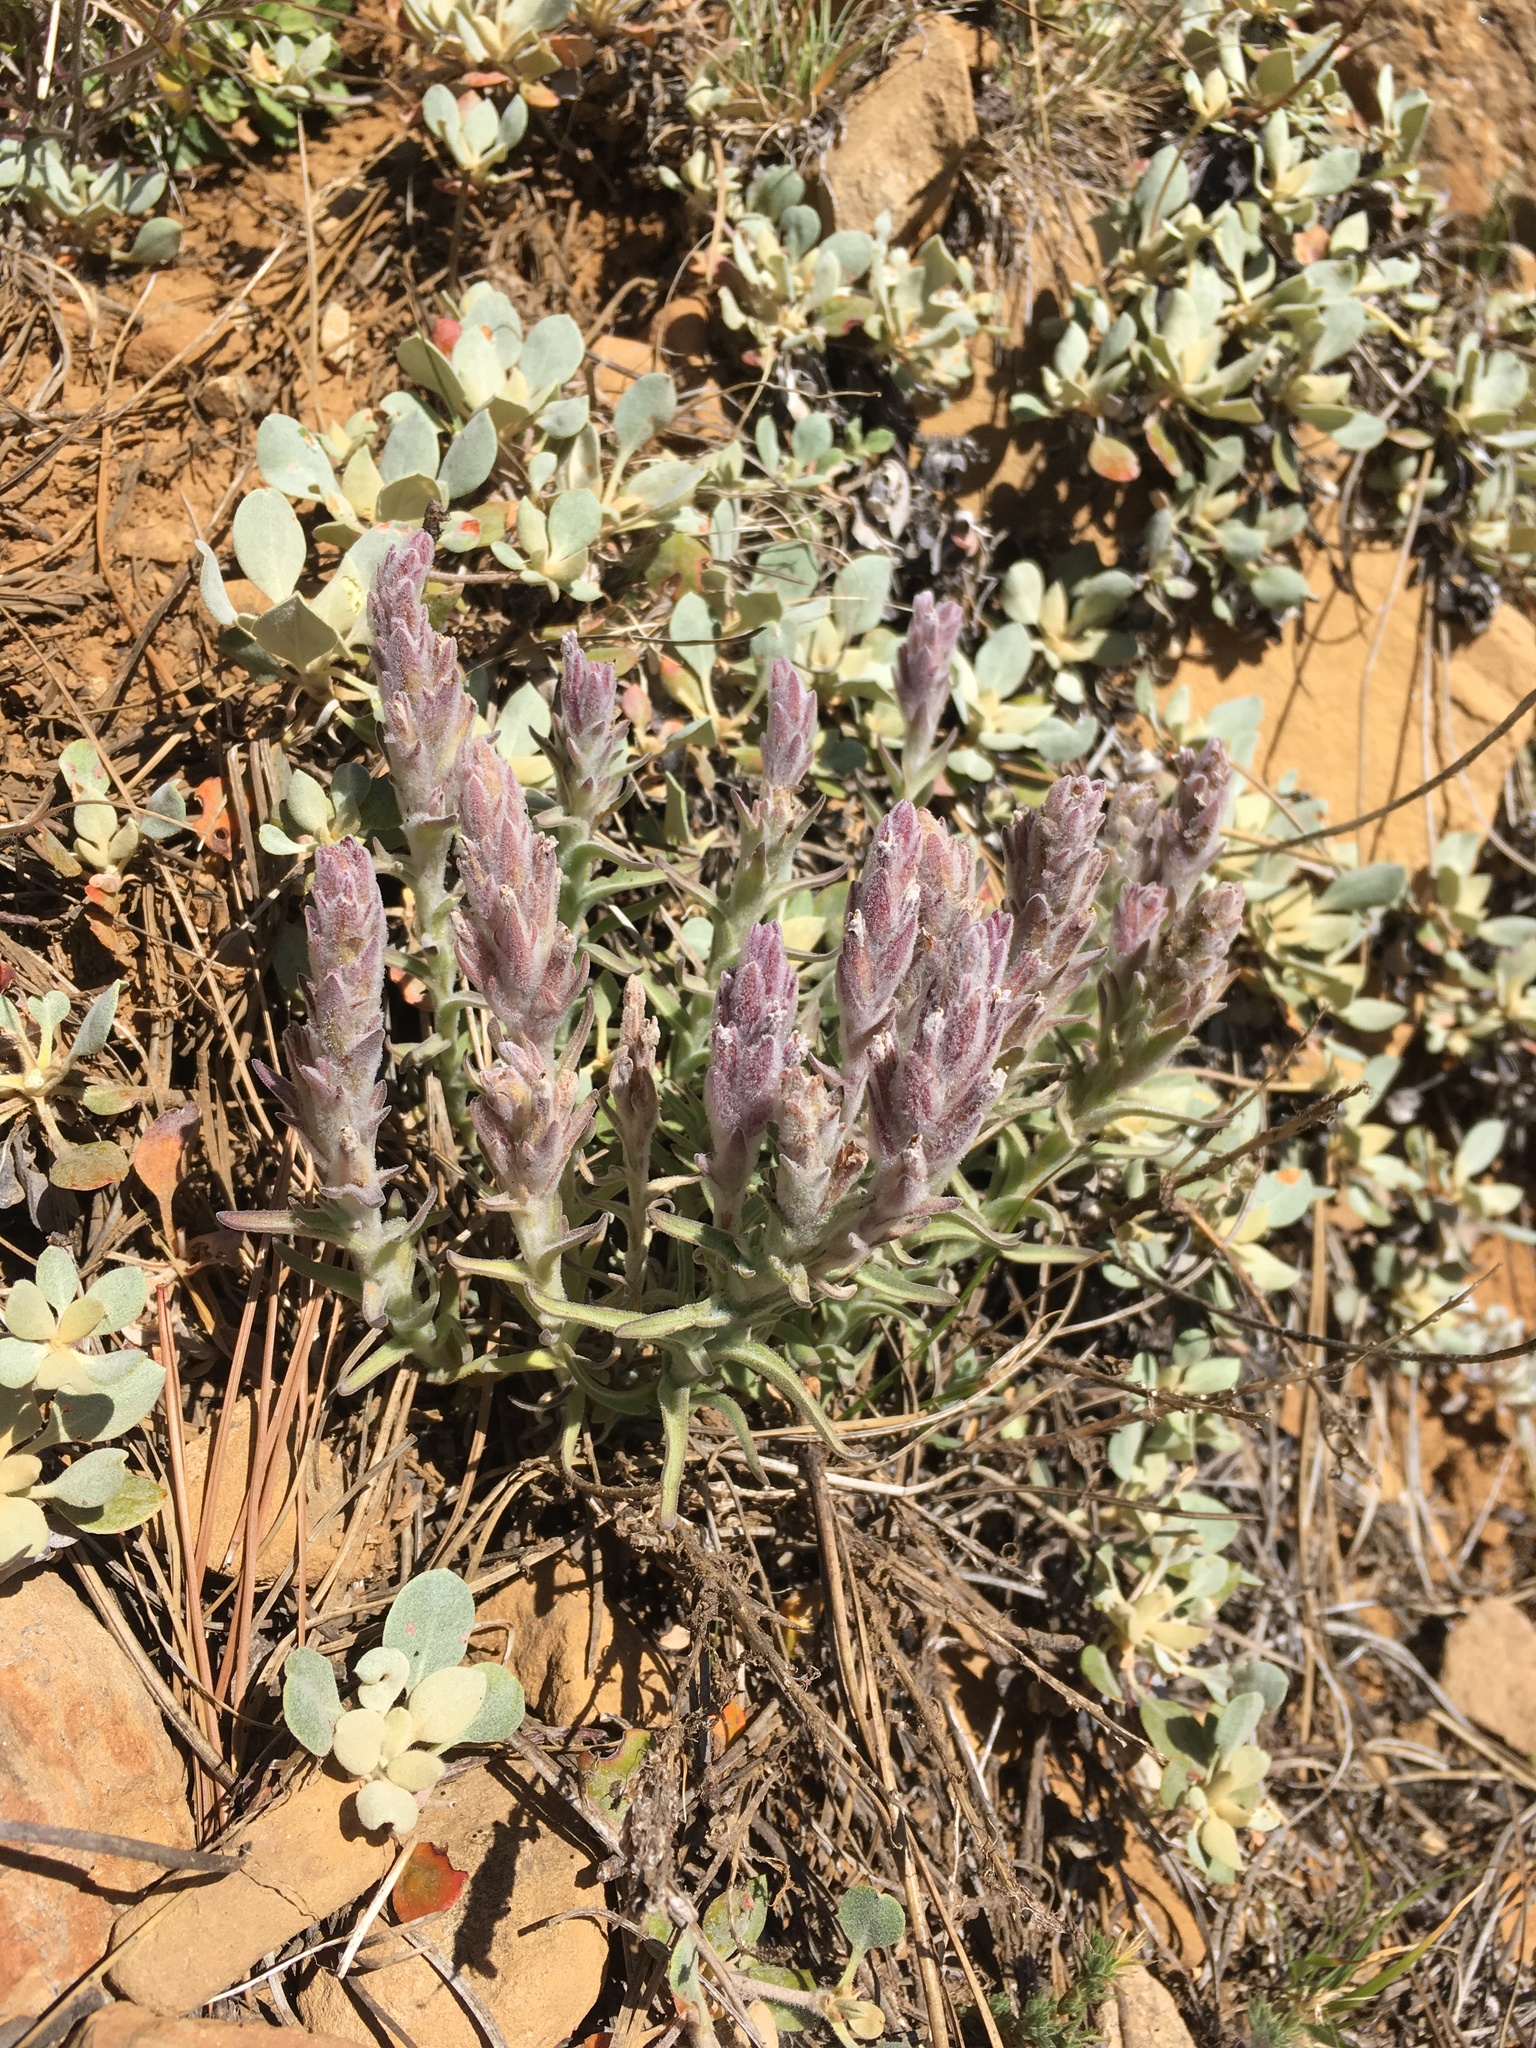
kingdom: Plantae
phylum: Tracheophyta
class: Magnoliopsida
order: Lamiales
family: Orobanchaceae
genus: Castilleja
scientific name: Castilleja schizotricha
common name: Split-hair indian paintbrush
